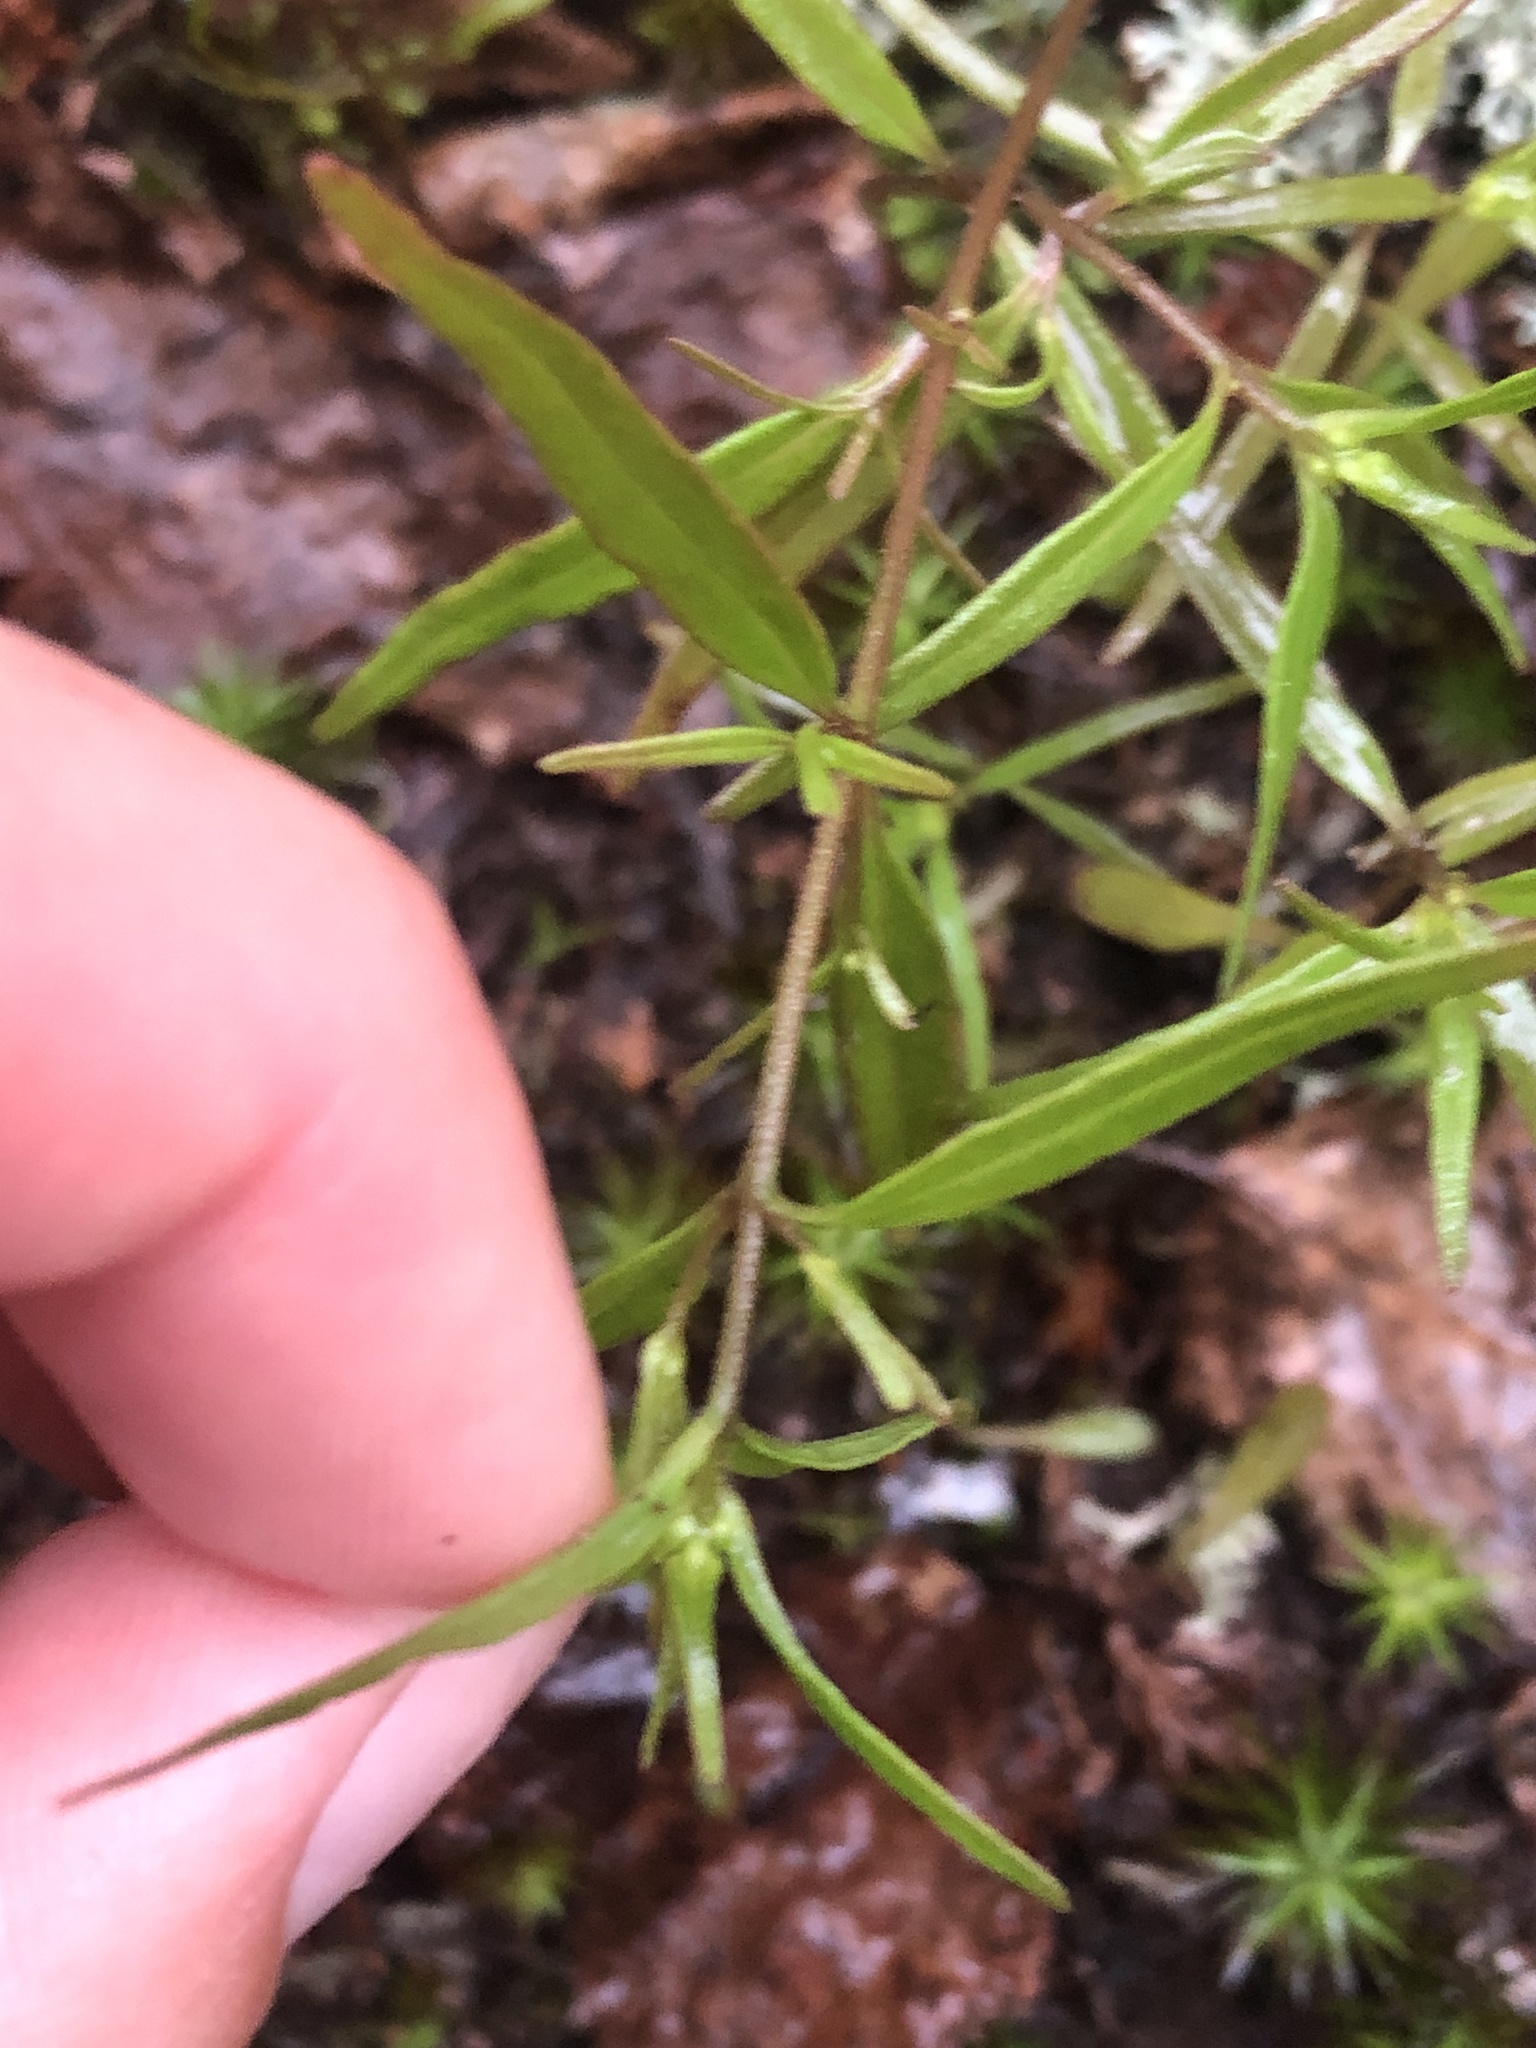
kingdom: Plantae
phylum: Tracheophyta
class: Magnoliopsida
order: Lamiales
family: Orobanchaceae
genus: Melampyrum
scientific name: Melampyrum lineare
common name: American cow-wheat
